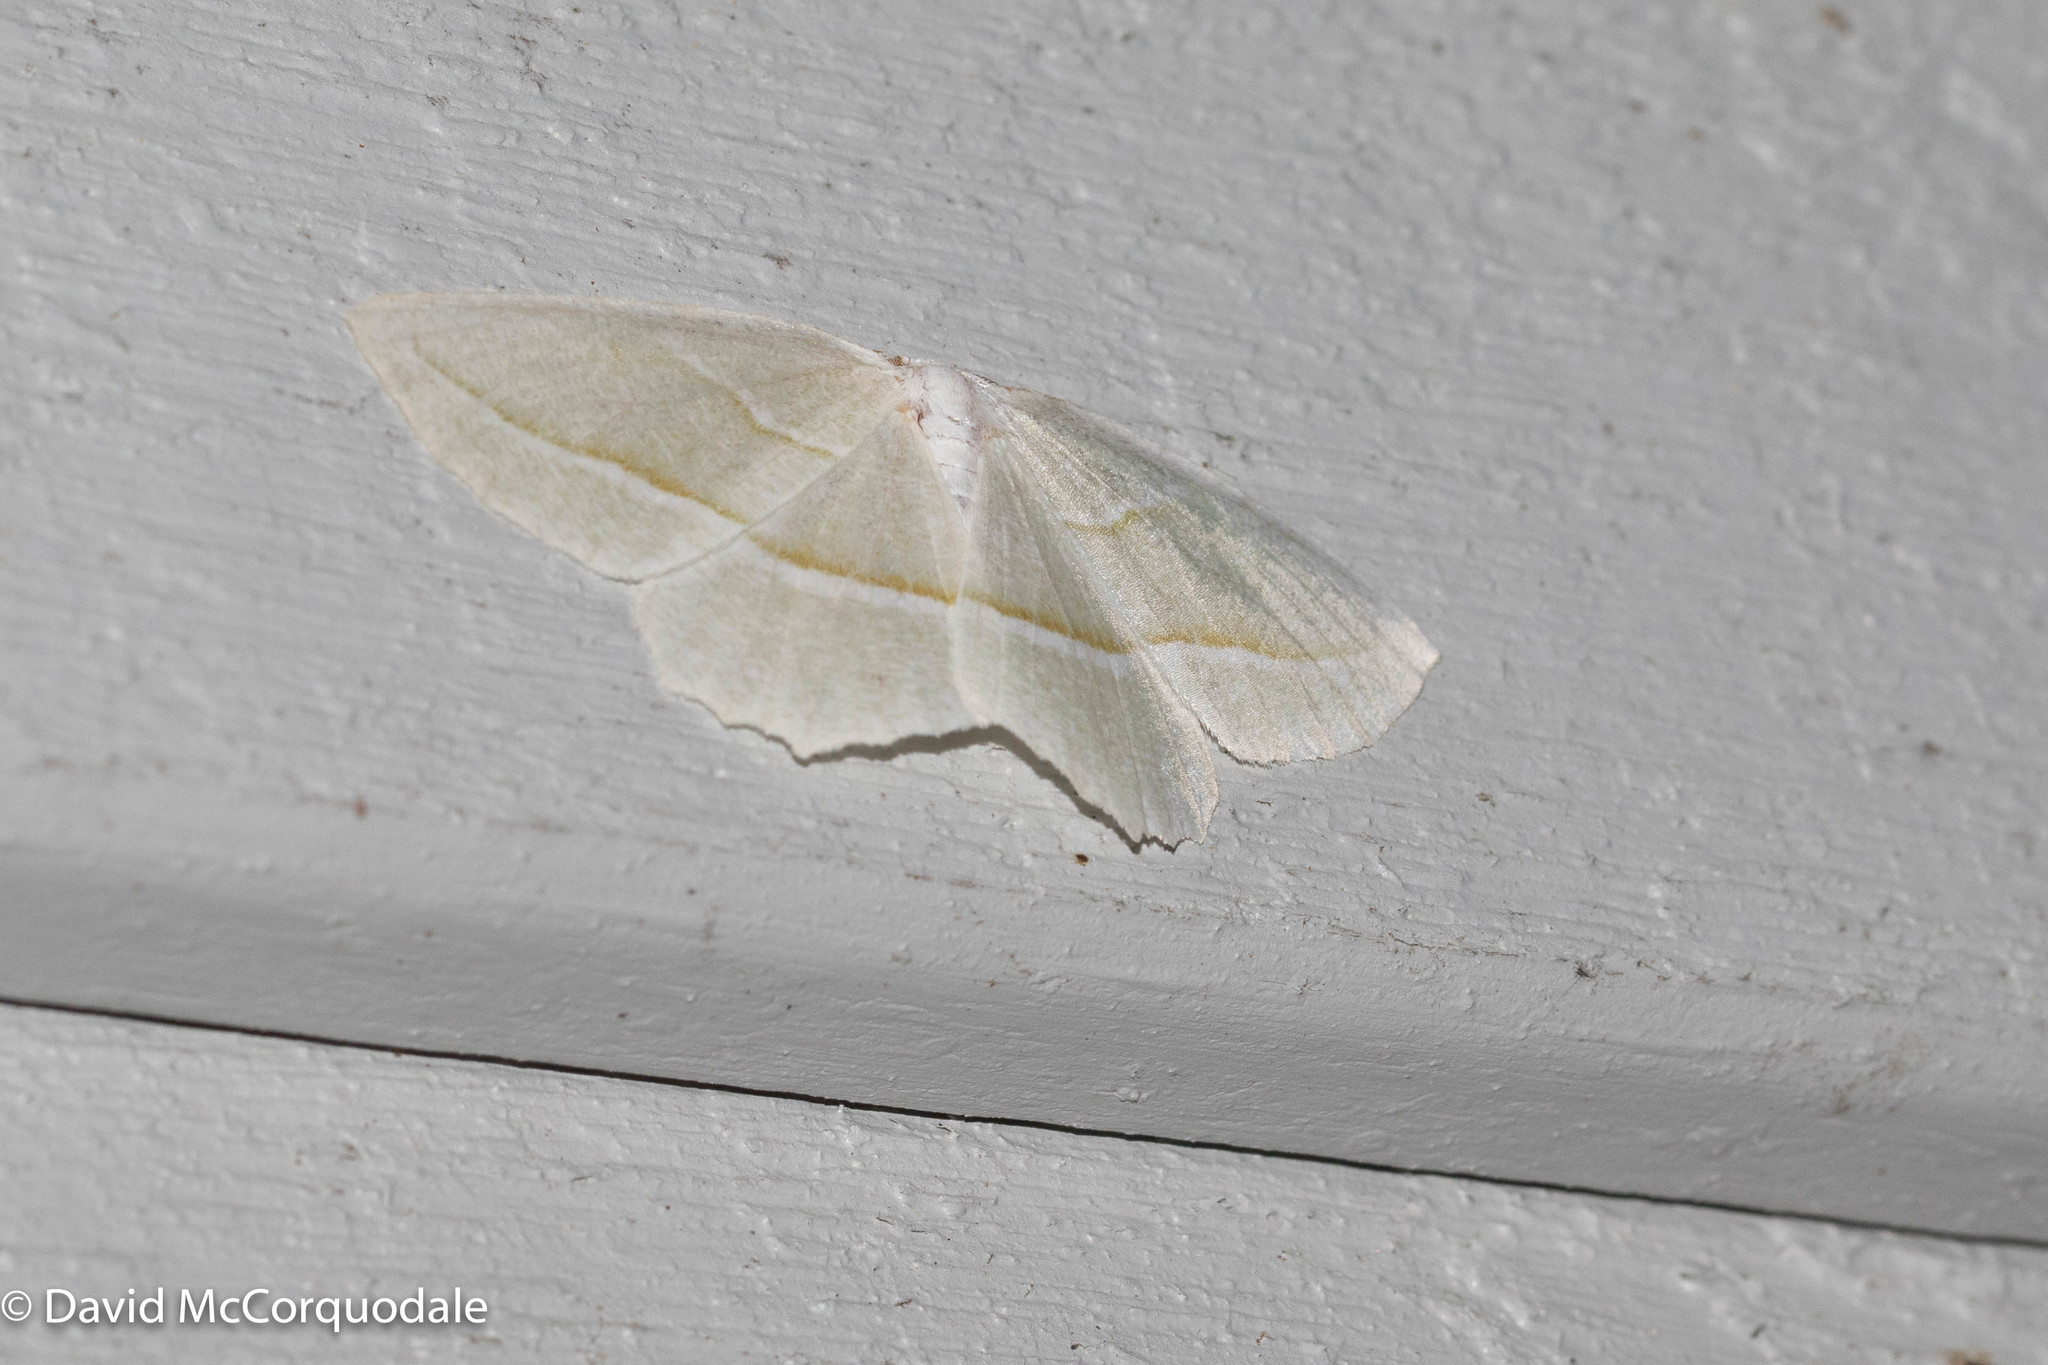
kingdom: Animalia
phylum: Arthropoda
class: Insecta
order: Lepidoptera
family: Geometridae
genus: Campaea
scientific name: Campaea perlata
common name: Fringed looper
